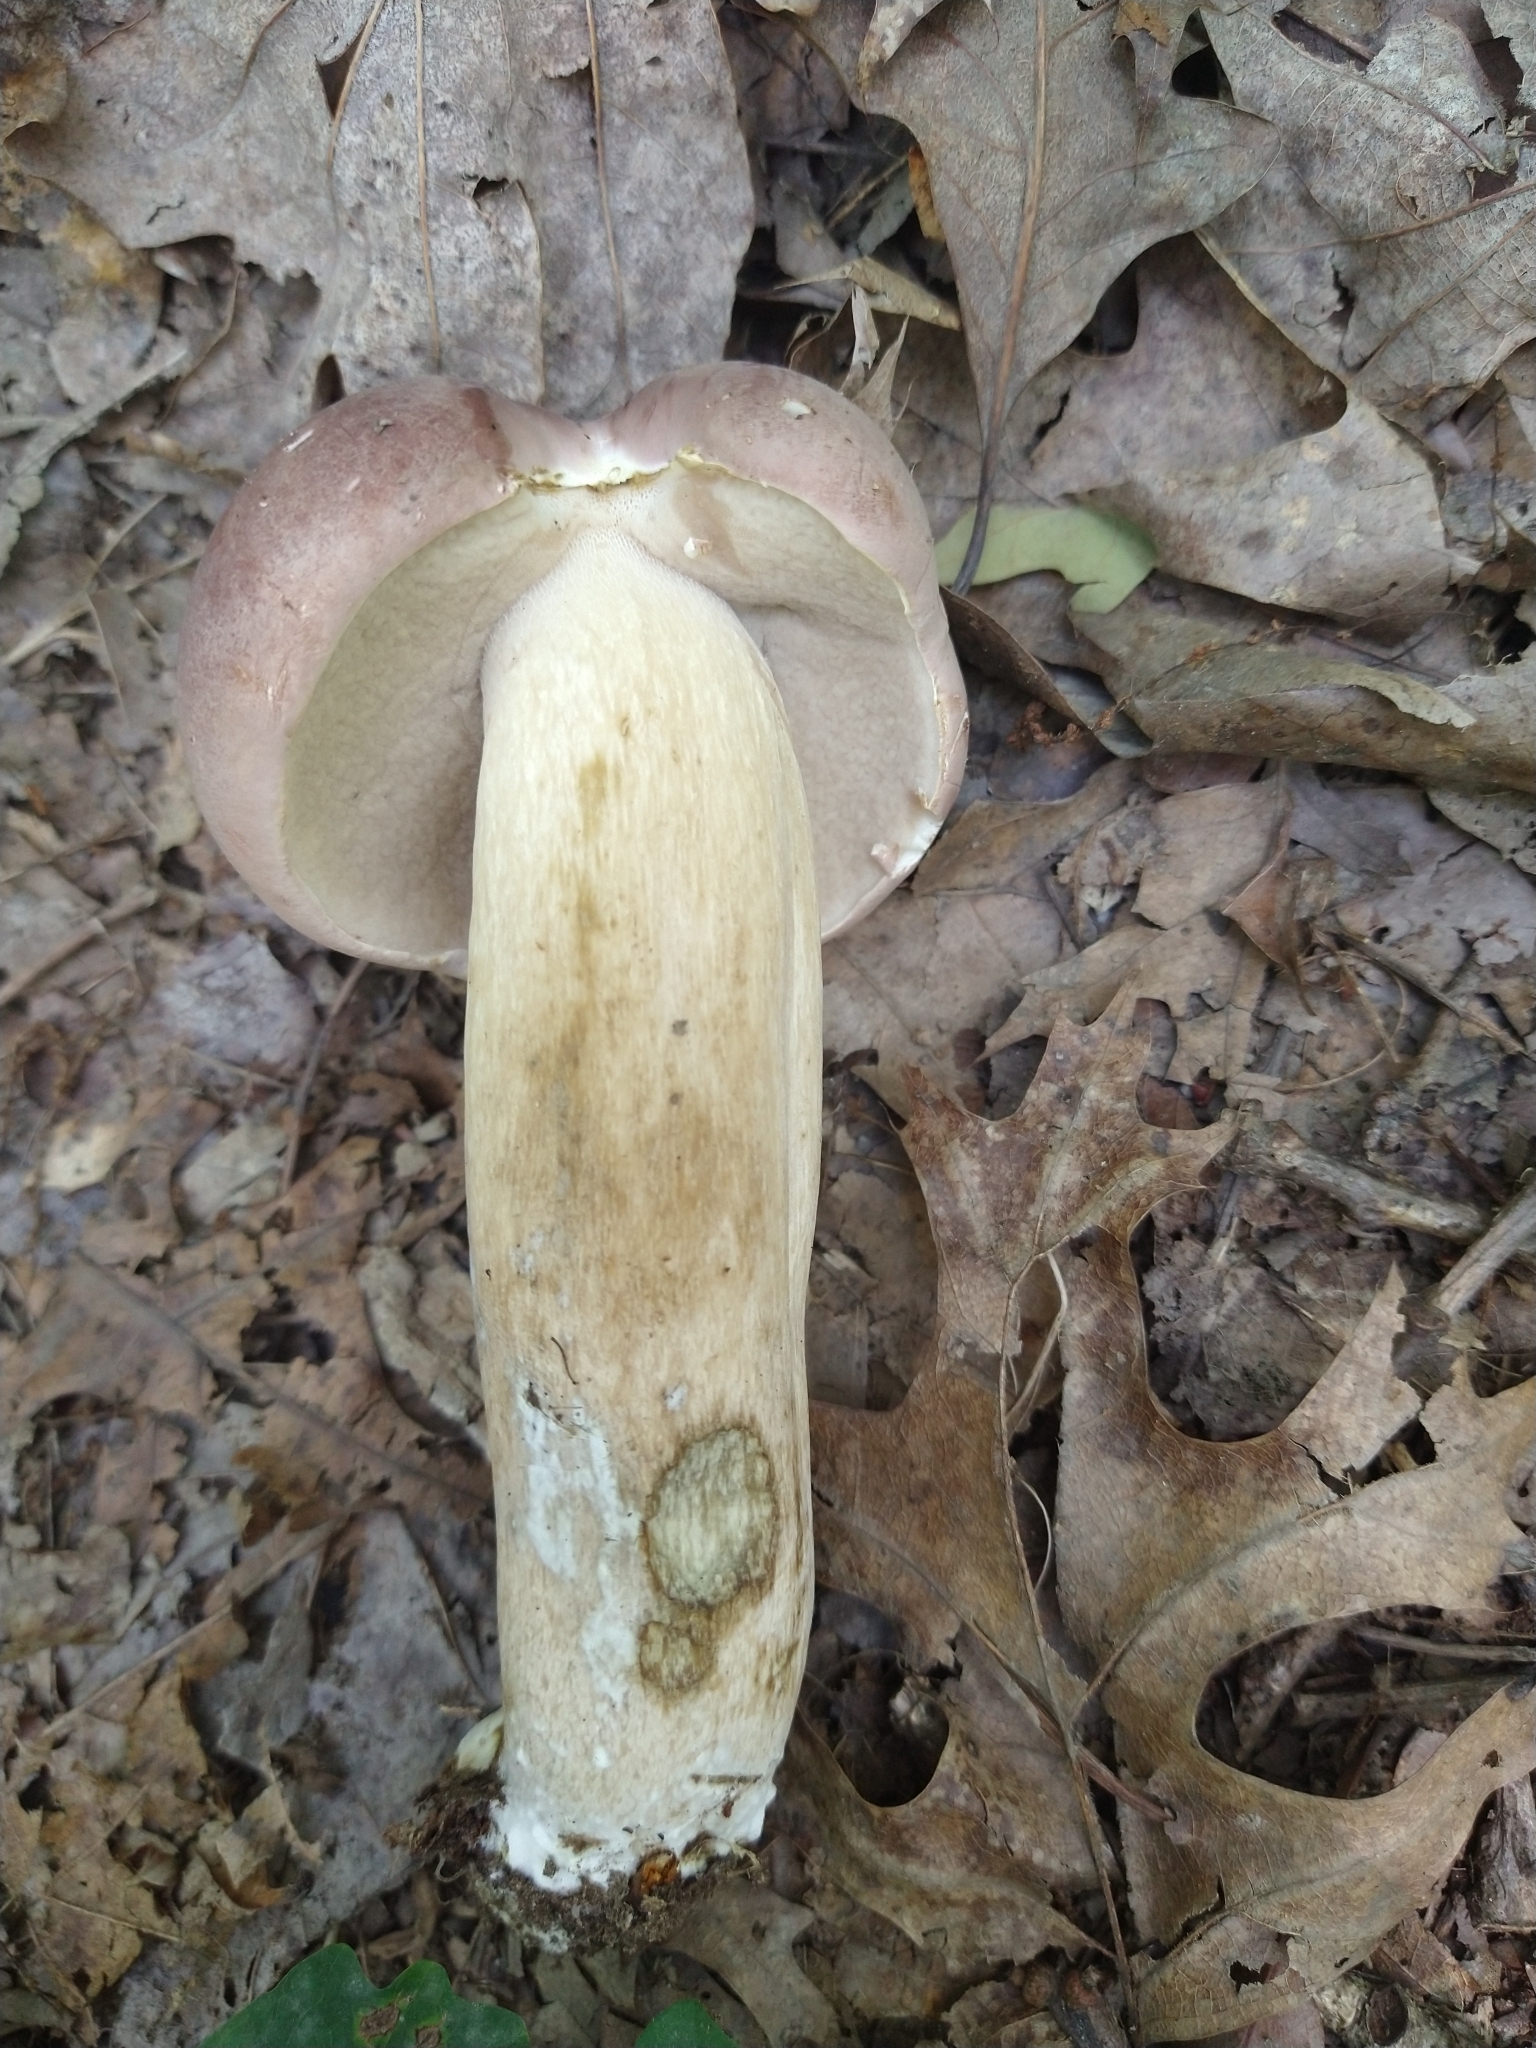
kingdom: Fungi
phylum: Basidiomycota
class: Agaricomycetes
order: Boletales
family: Boletaceae
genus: Tylopilus
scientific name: Tylopilus rubrobrunneus
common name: Reddish brown bitter bolete
